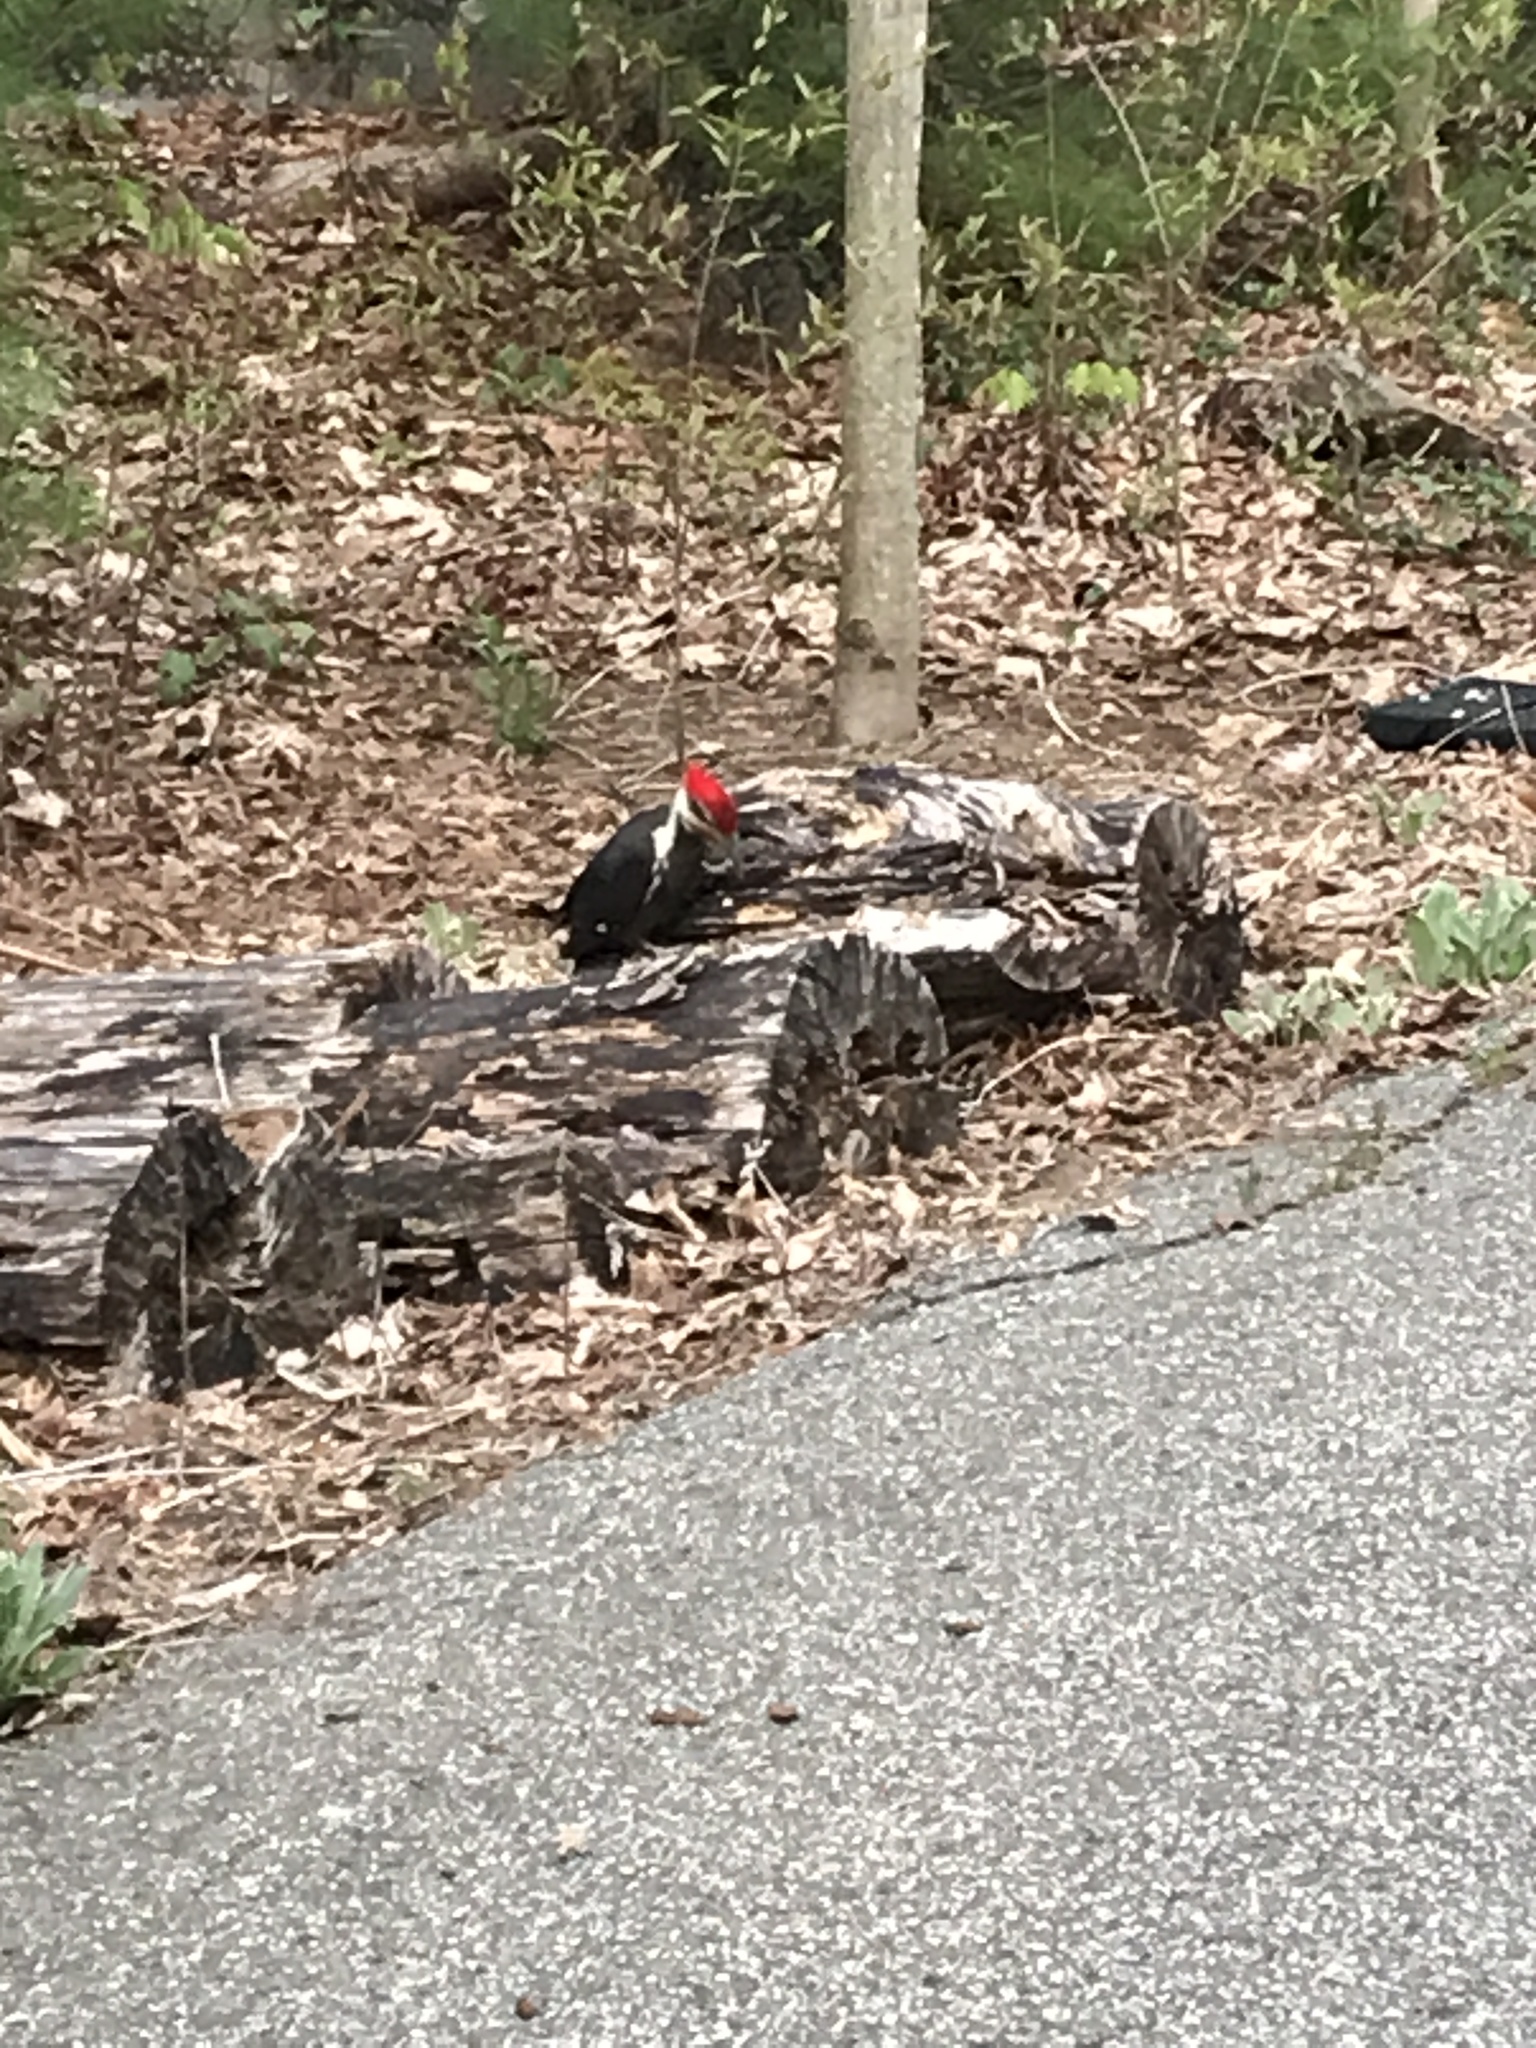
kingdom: Animalia
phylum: Chordata
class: Aves
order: Piciformes
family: Picidae
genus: Dryocopus
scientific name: Dryocopus pileatus
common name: Pileated woodpecker
